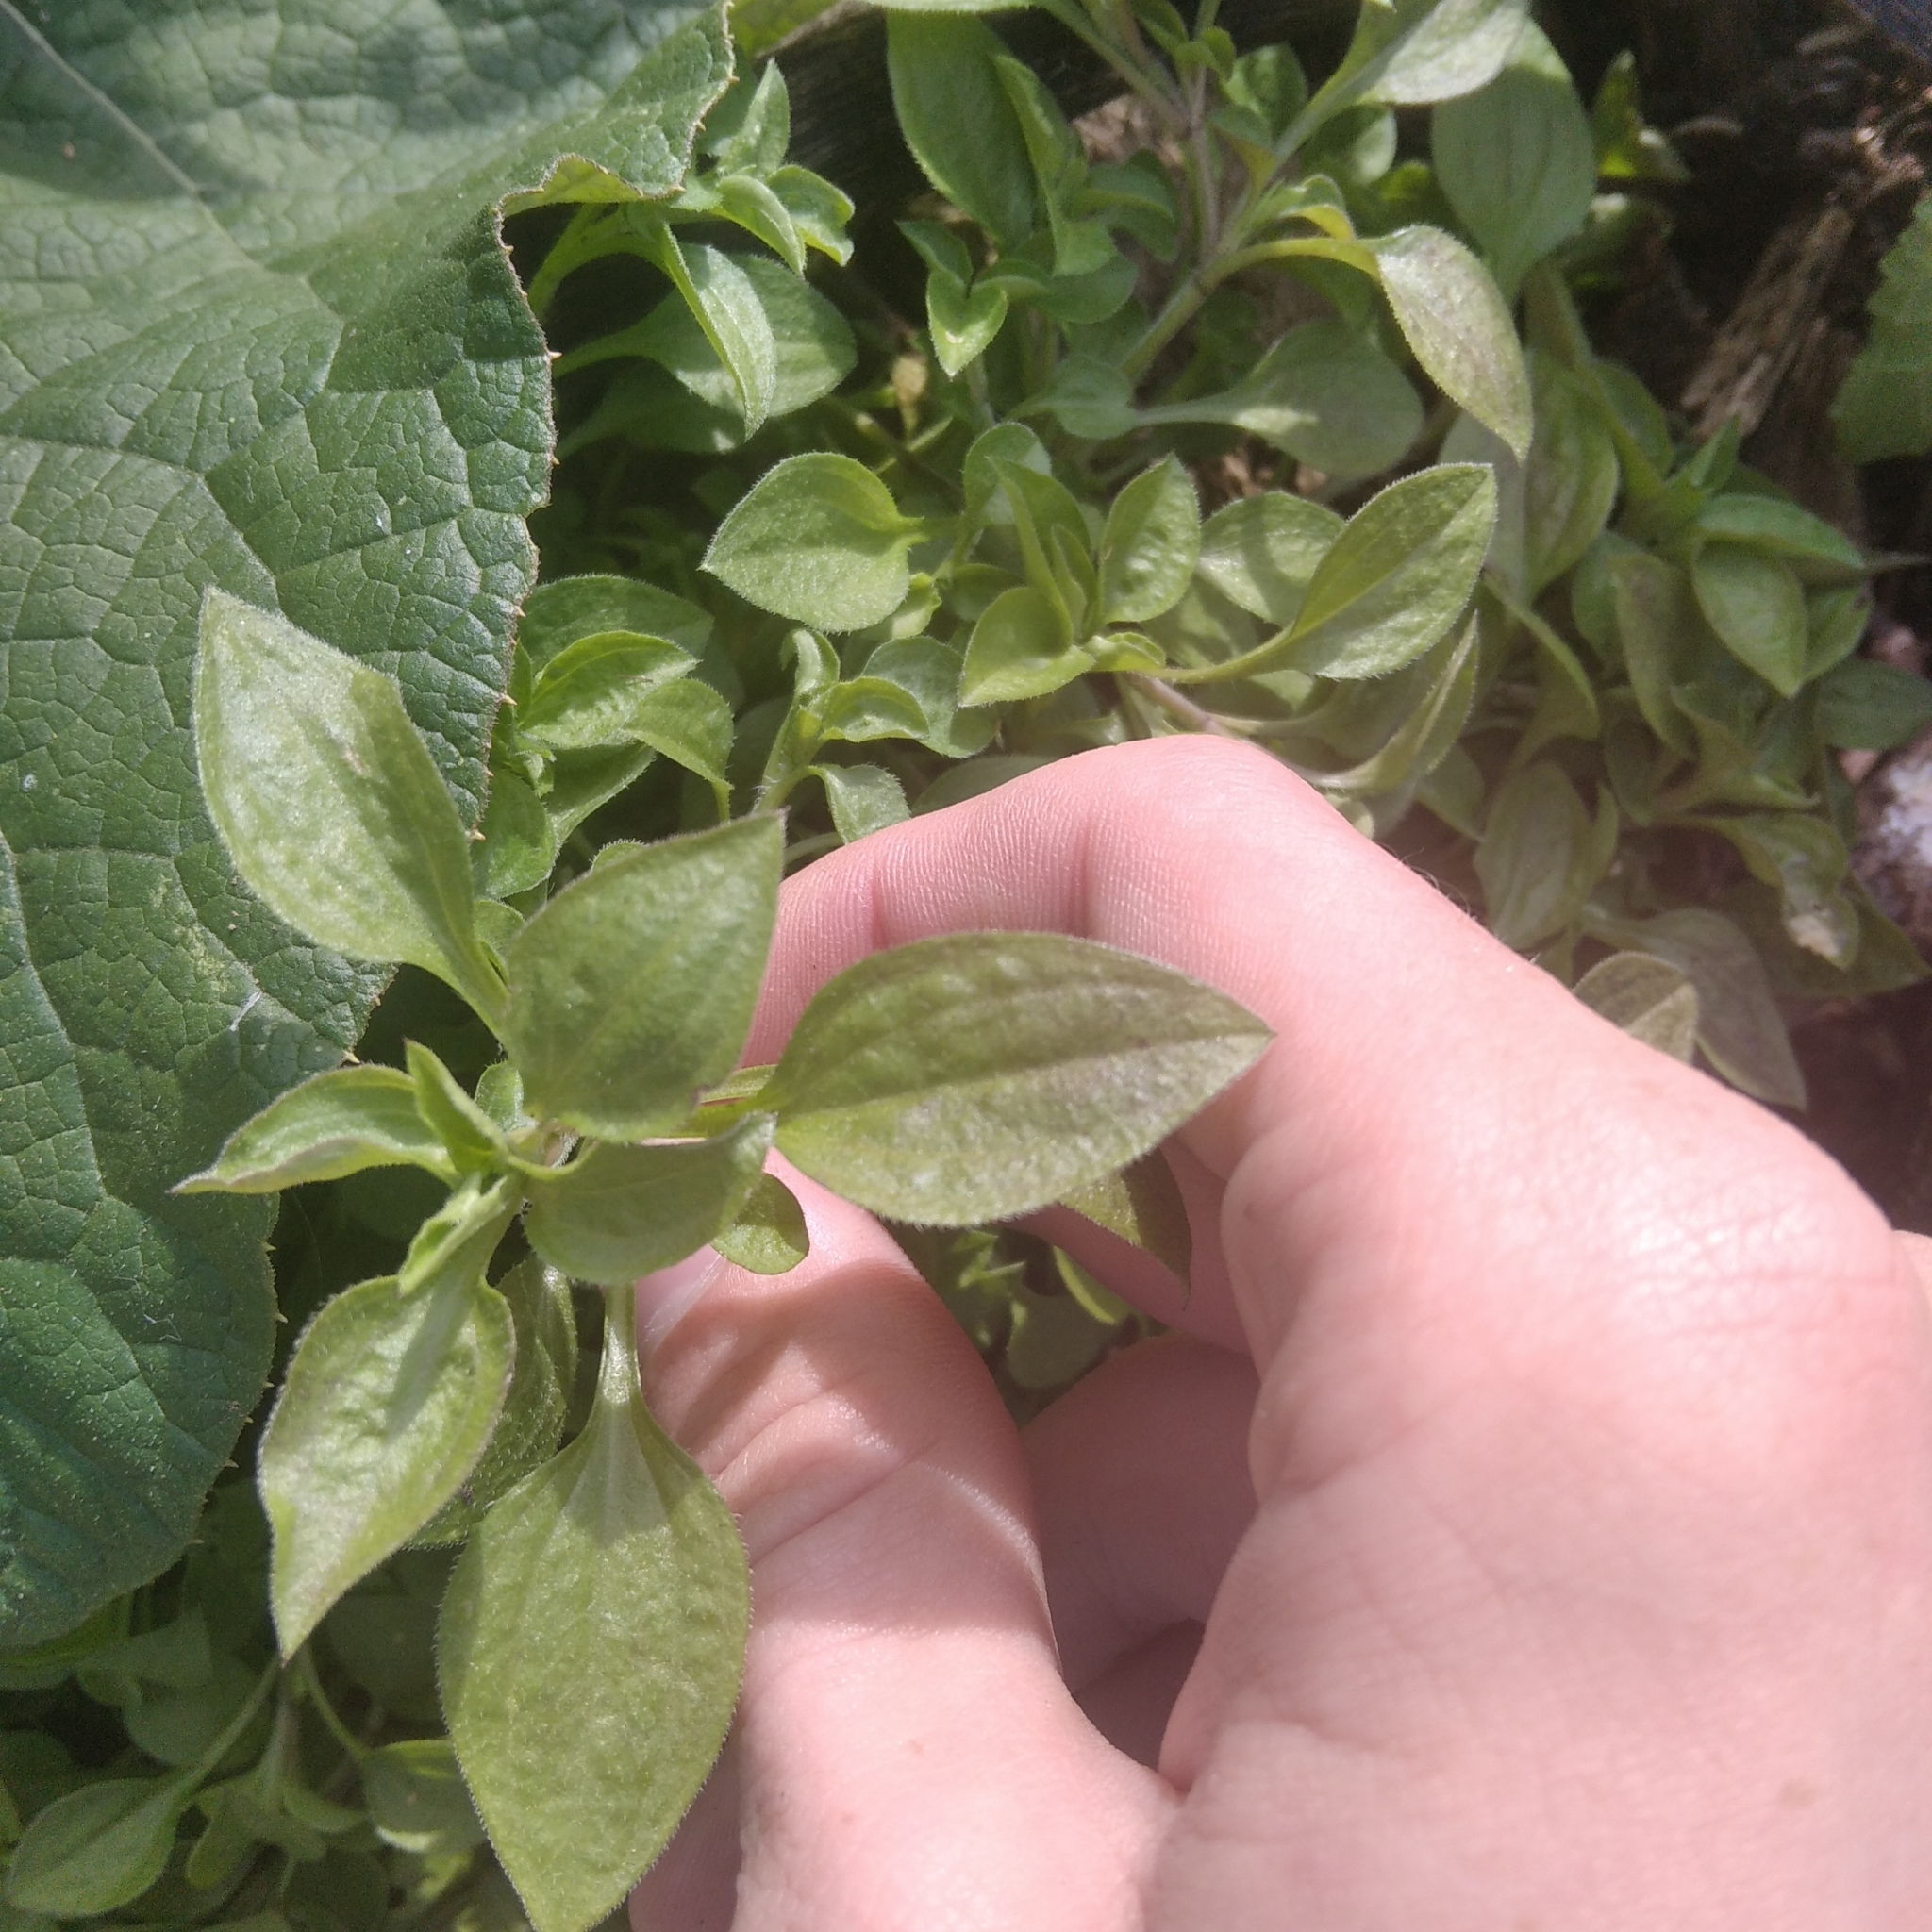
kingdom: Plantae
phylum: Tracheophyta
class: Magnoliopsida
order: Caryophyllales
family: Caryophyllaceae
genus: Moehringia
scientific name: Moehringia trinervia
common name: Three-nerved sandwort
